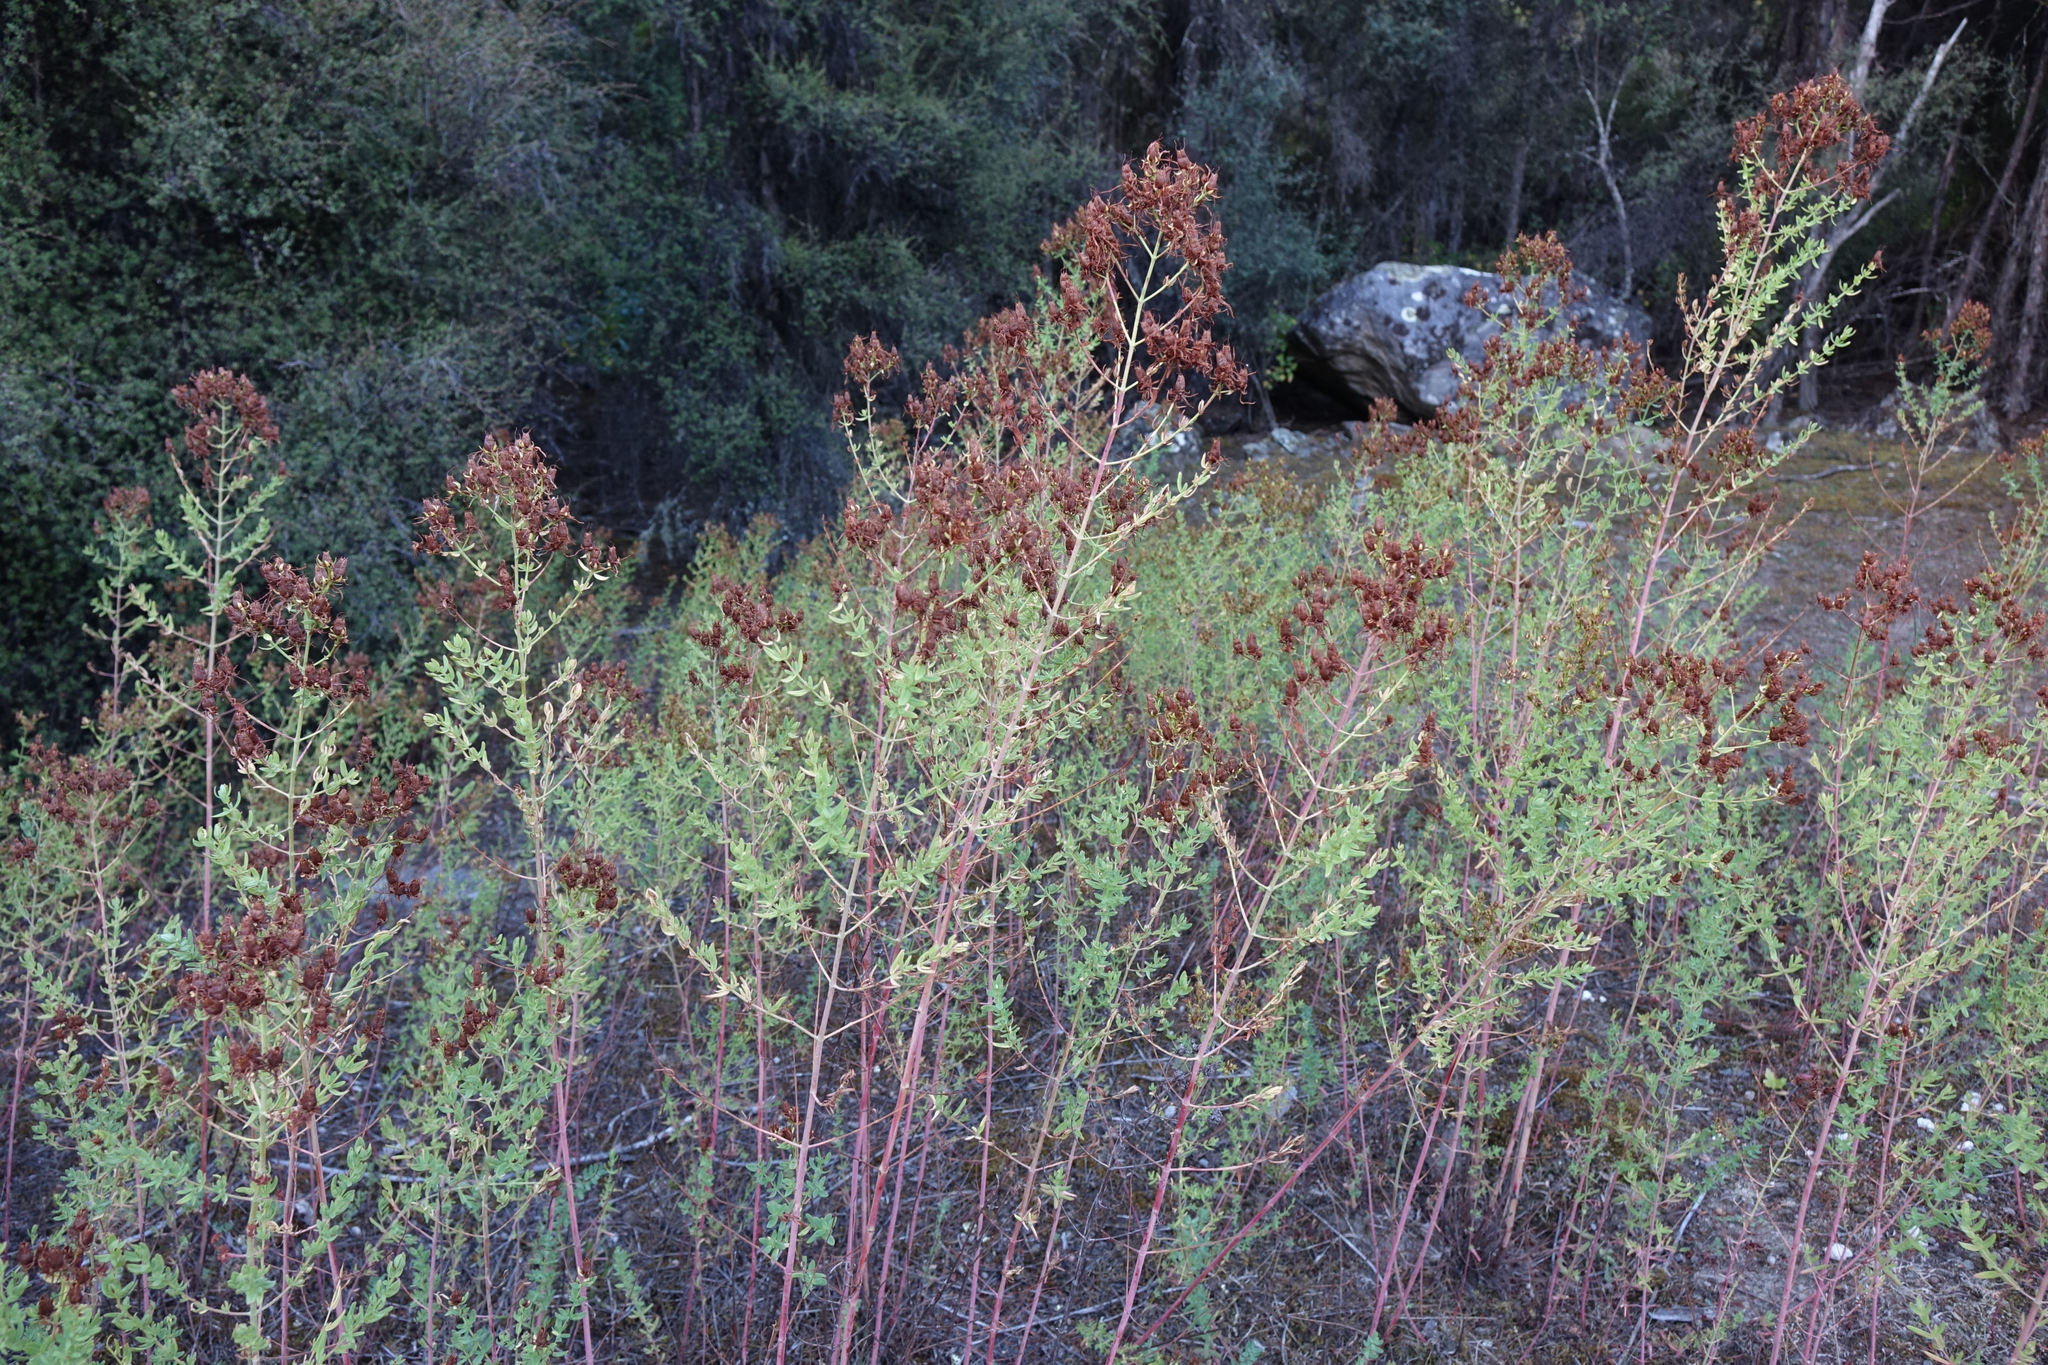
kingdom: Plantae
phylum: Tracheophyta
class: Magnoliopsida
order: Malpighiales
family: Hypericaceae
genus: Hypericum
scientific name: Hypericum perforatum
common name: Common st. johnswort
